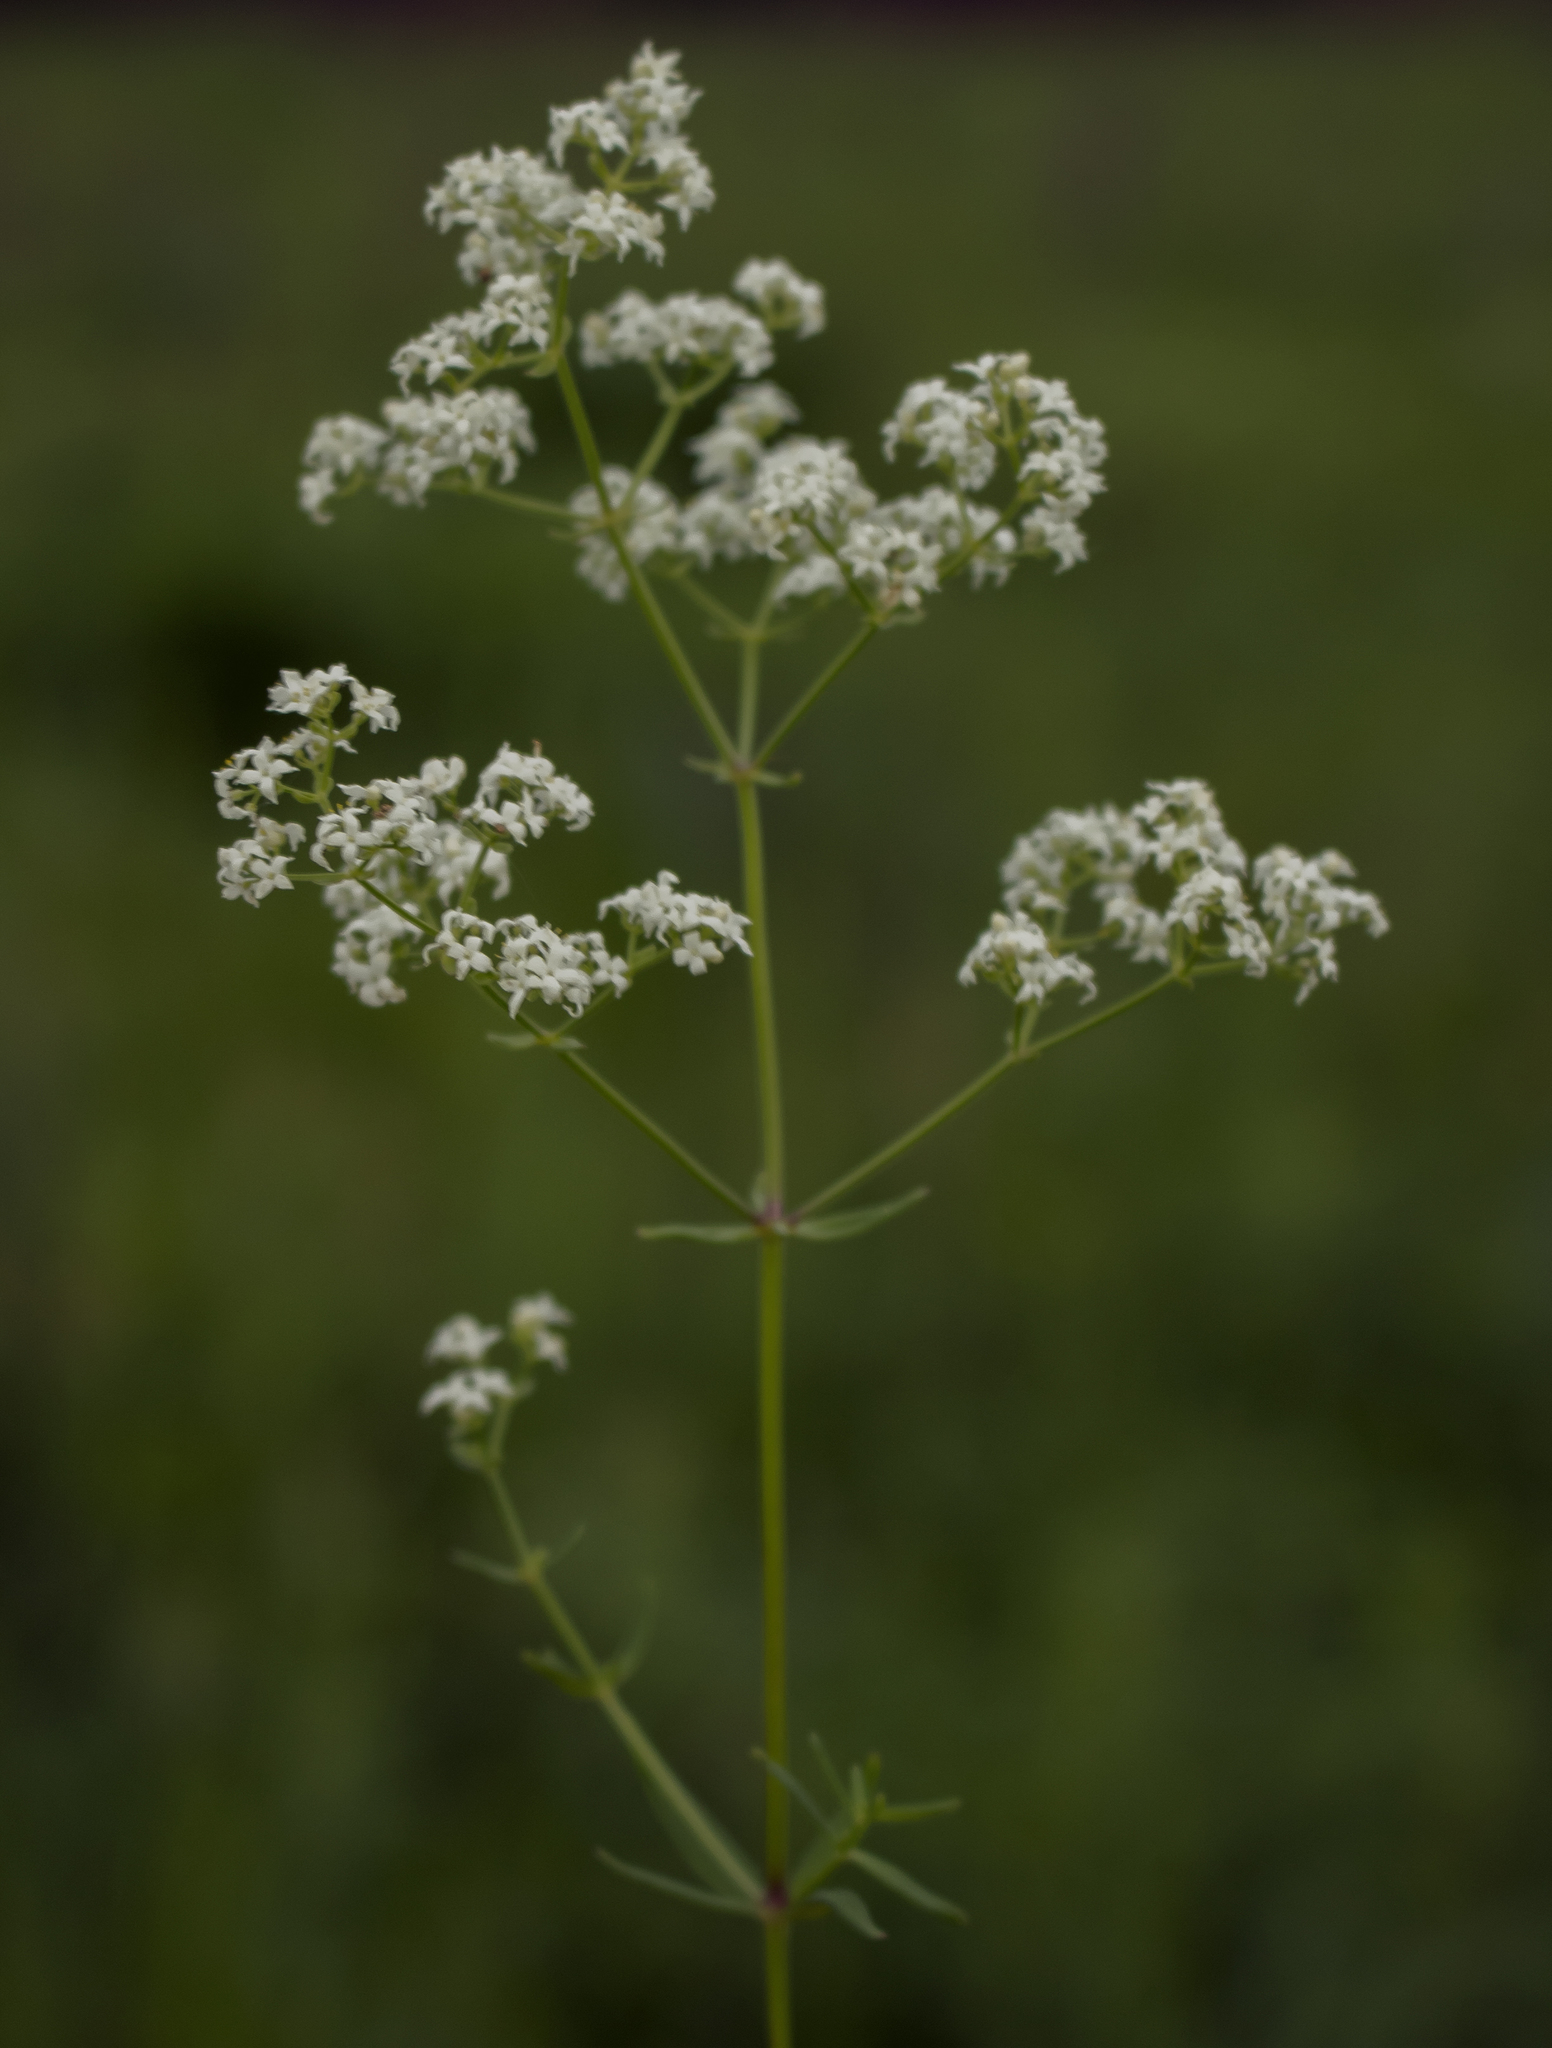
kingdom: Plantae
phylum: Tracheophyta
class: Magnoliopsida
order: Gentianales
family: Rubiaceae
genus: Galium
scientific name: Galium boreale
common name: Northern bedstraw
